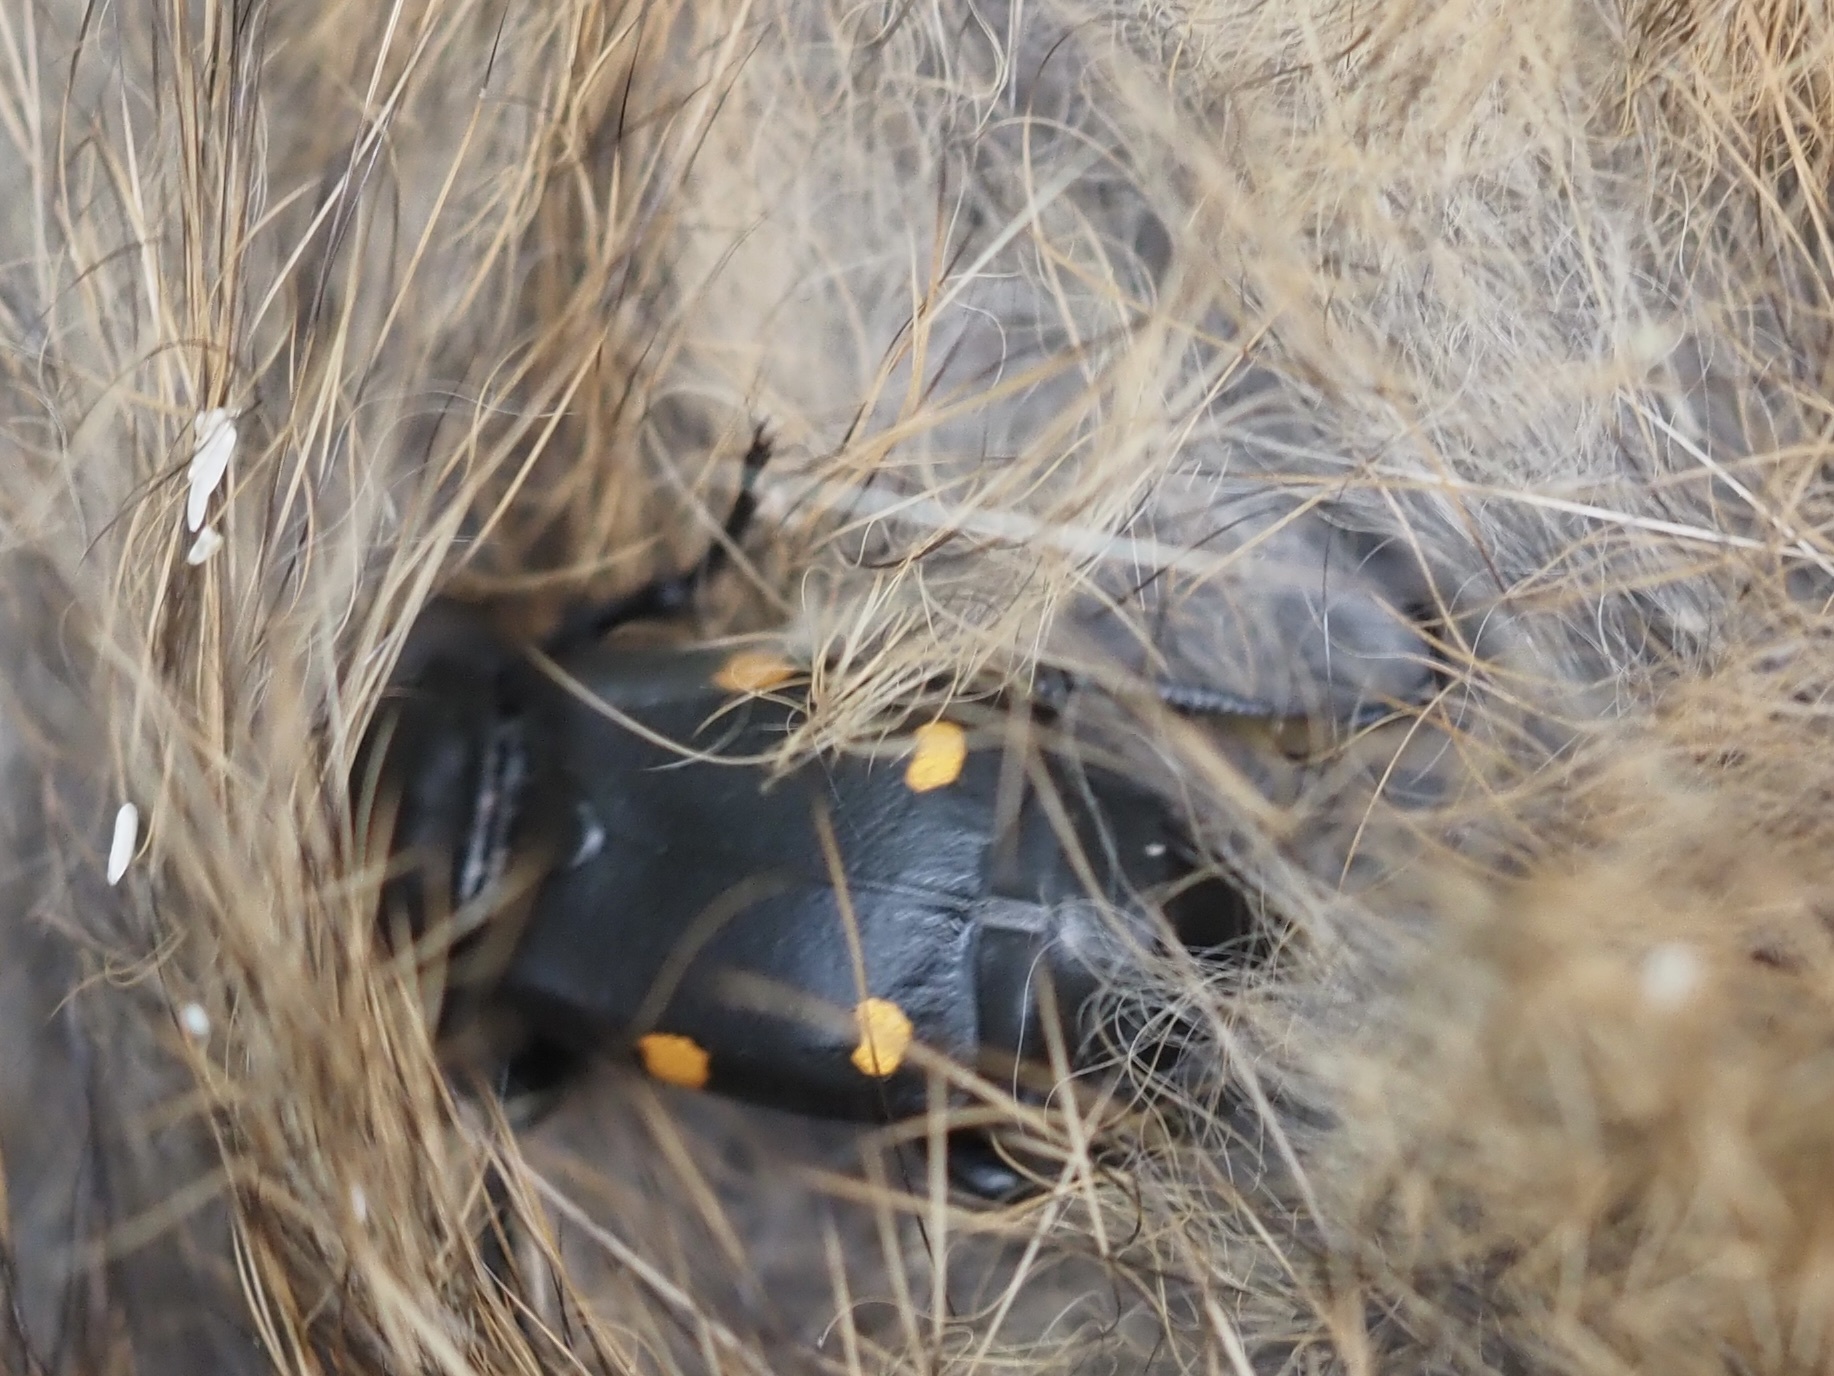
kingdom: Animalia
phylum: Arthropoda
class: Insecta
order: Coleoptera
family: Staphylinidae
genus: Nicrophorus
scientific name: Nicrophorus defodiens
